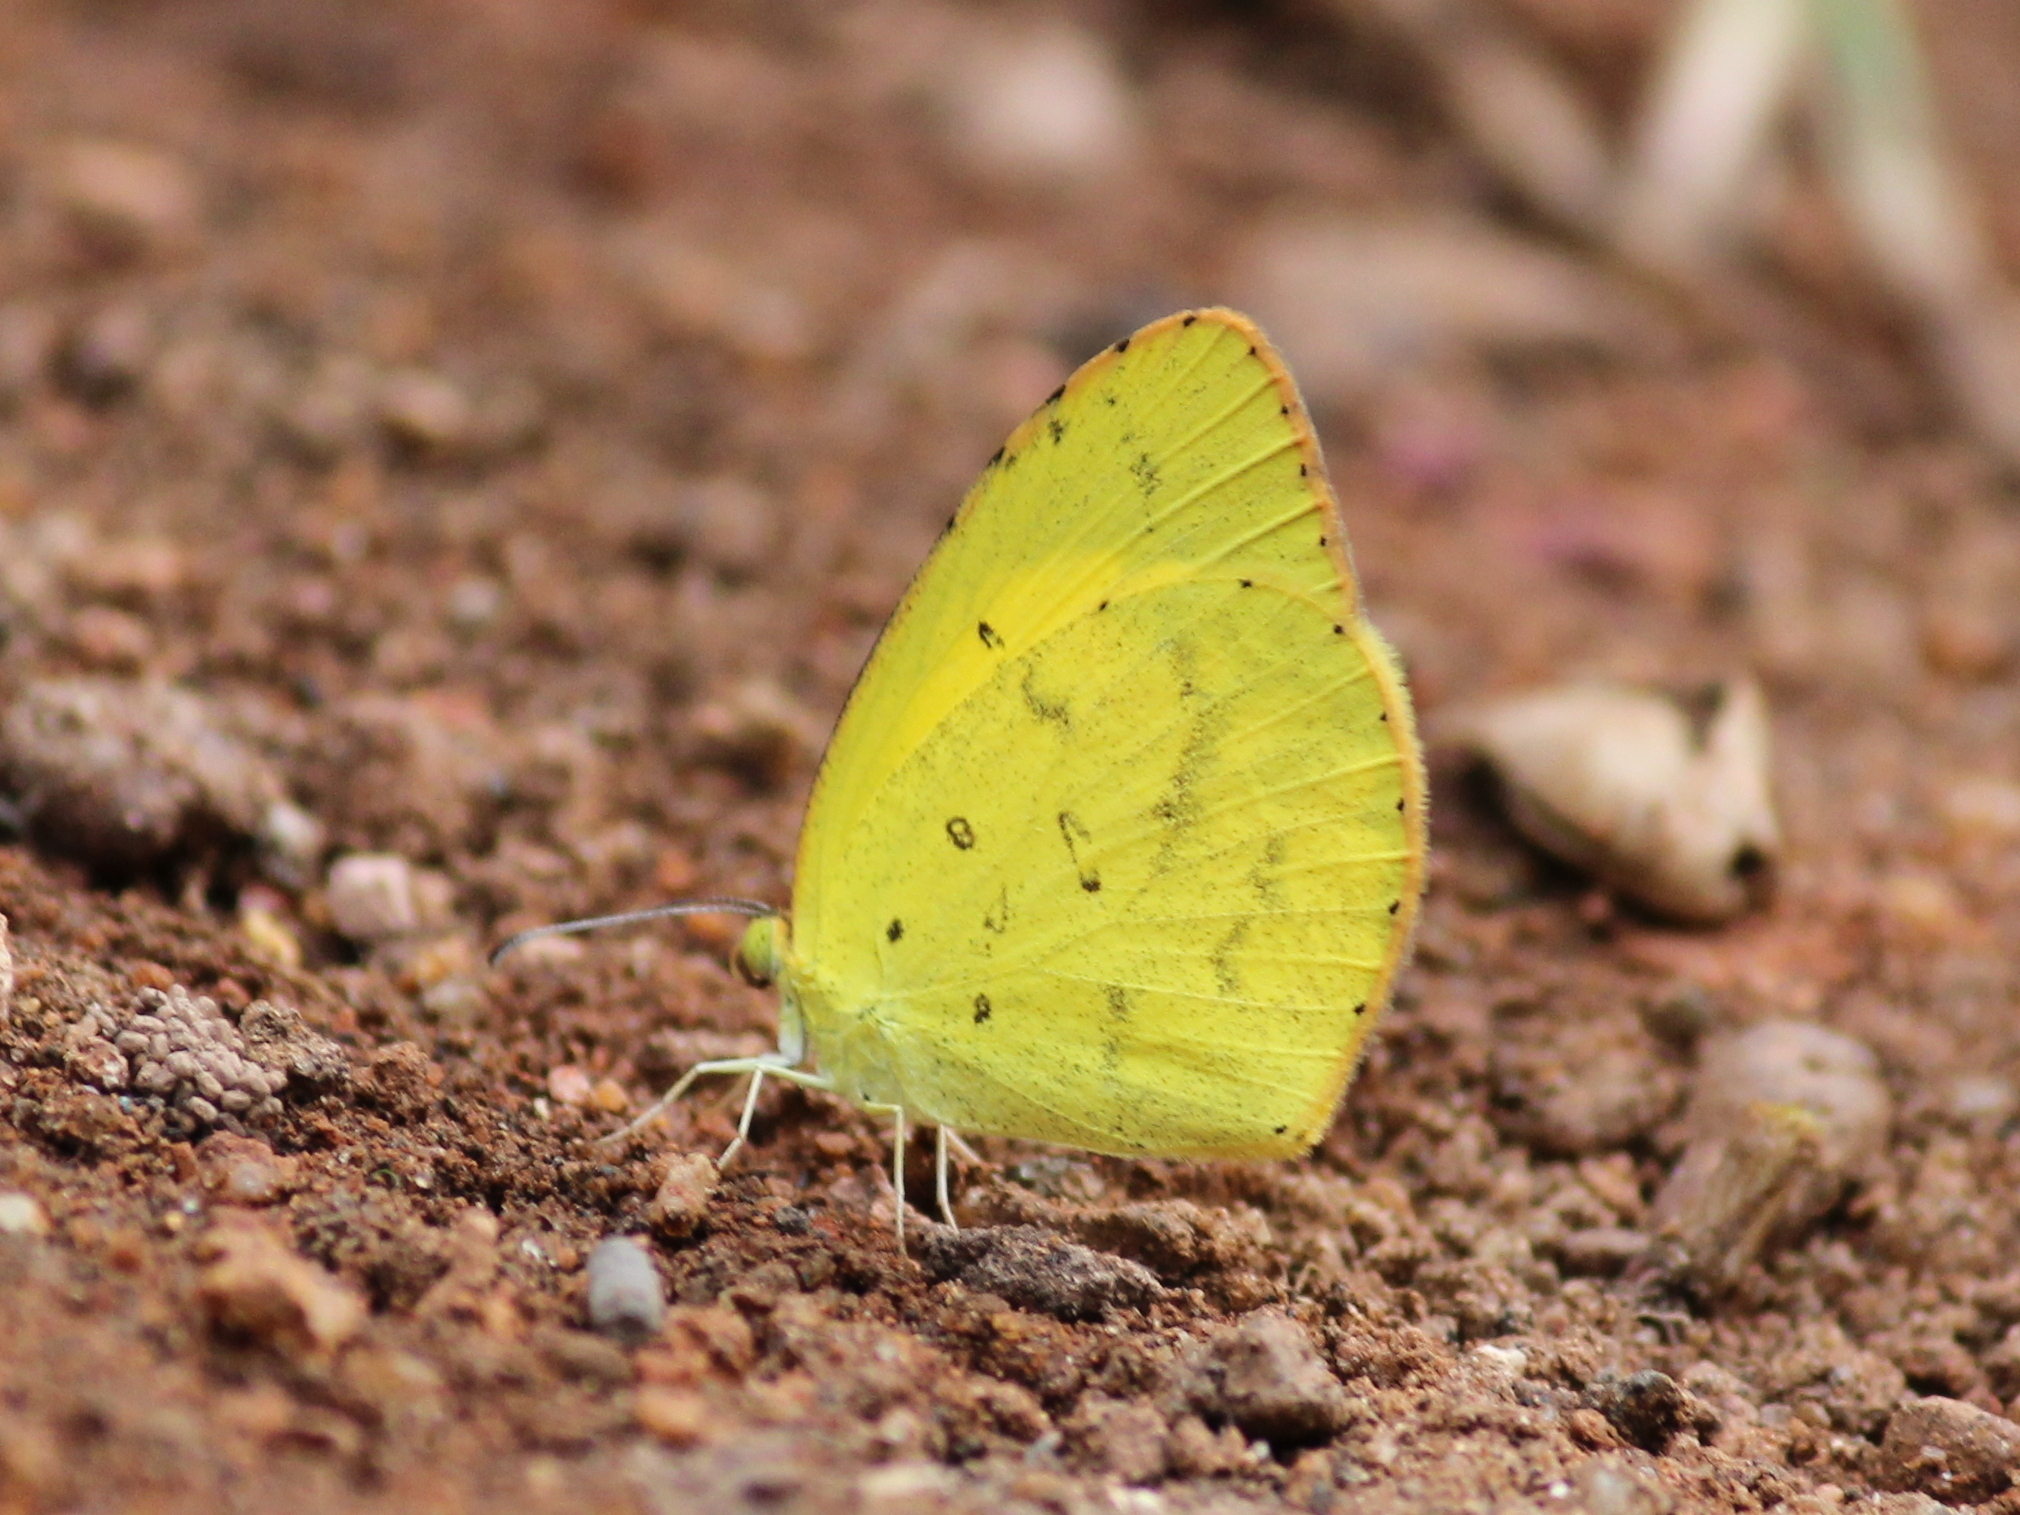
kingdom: Animalia
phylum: Arthropoda
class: Insecta
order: Lepidoptera
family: Pieridae
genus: Eurema
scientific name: Eurema brigitta
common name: Small grass yellow
